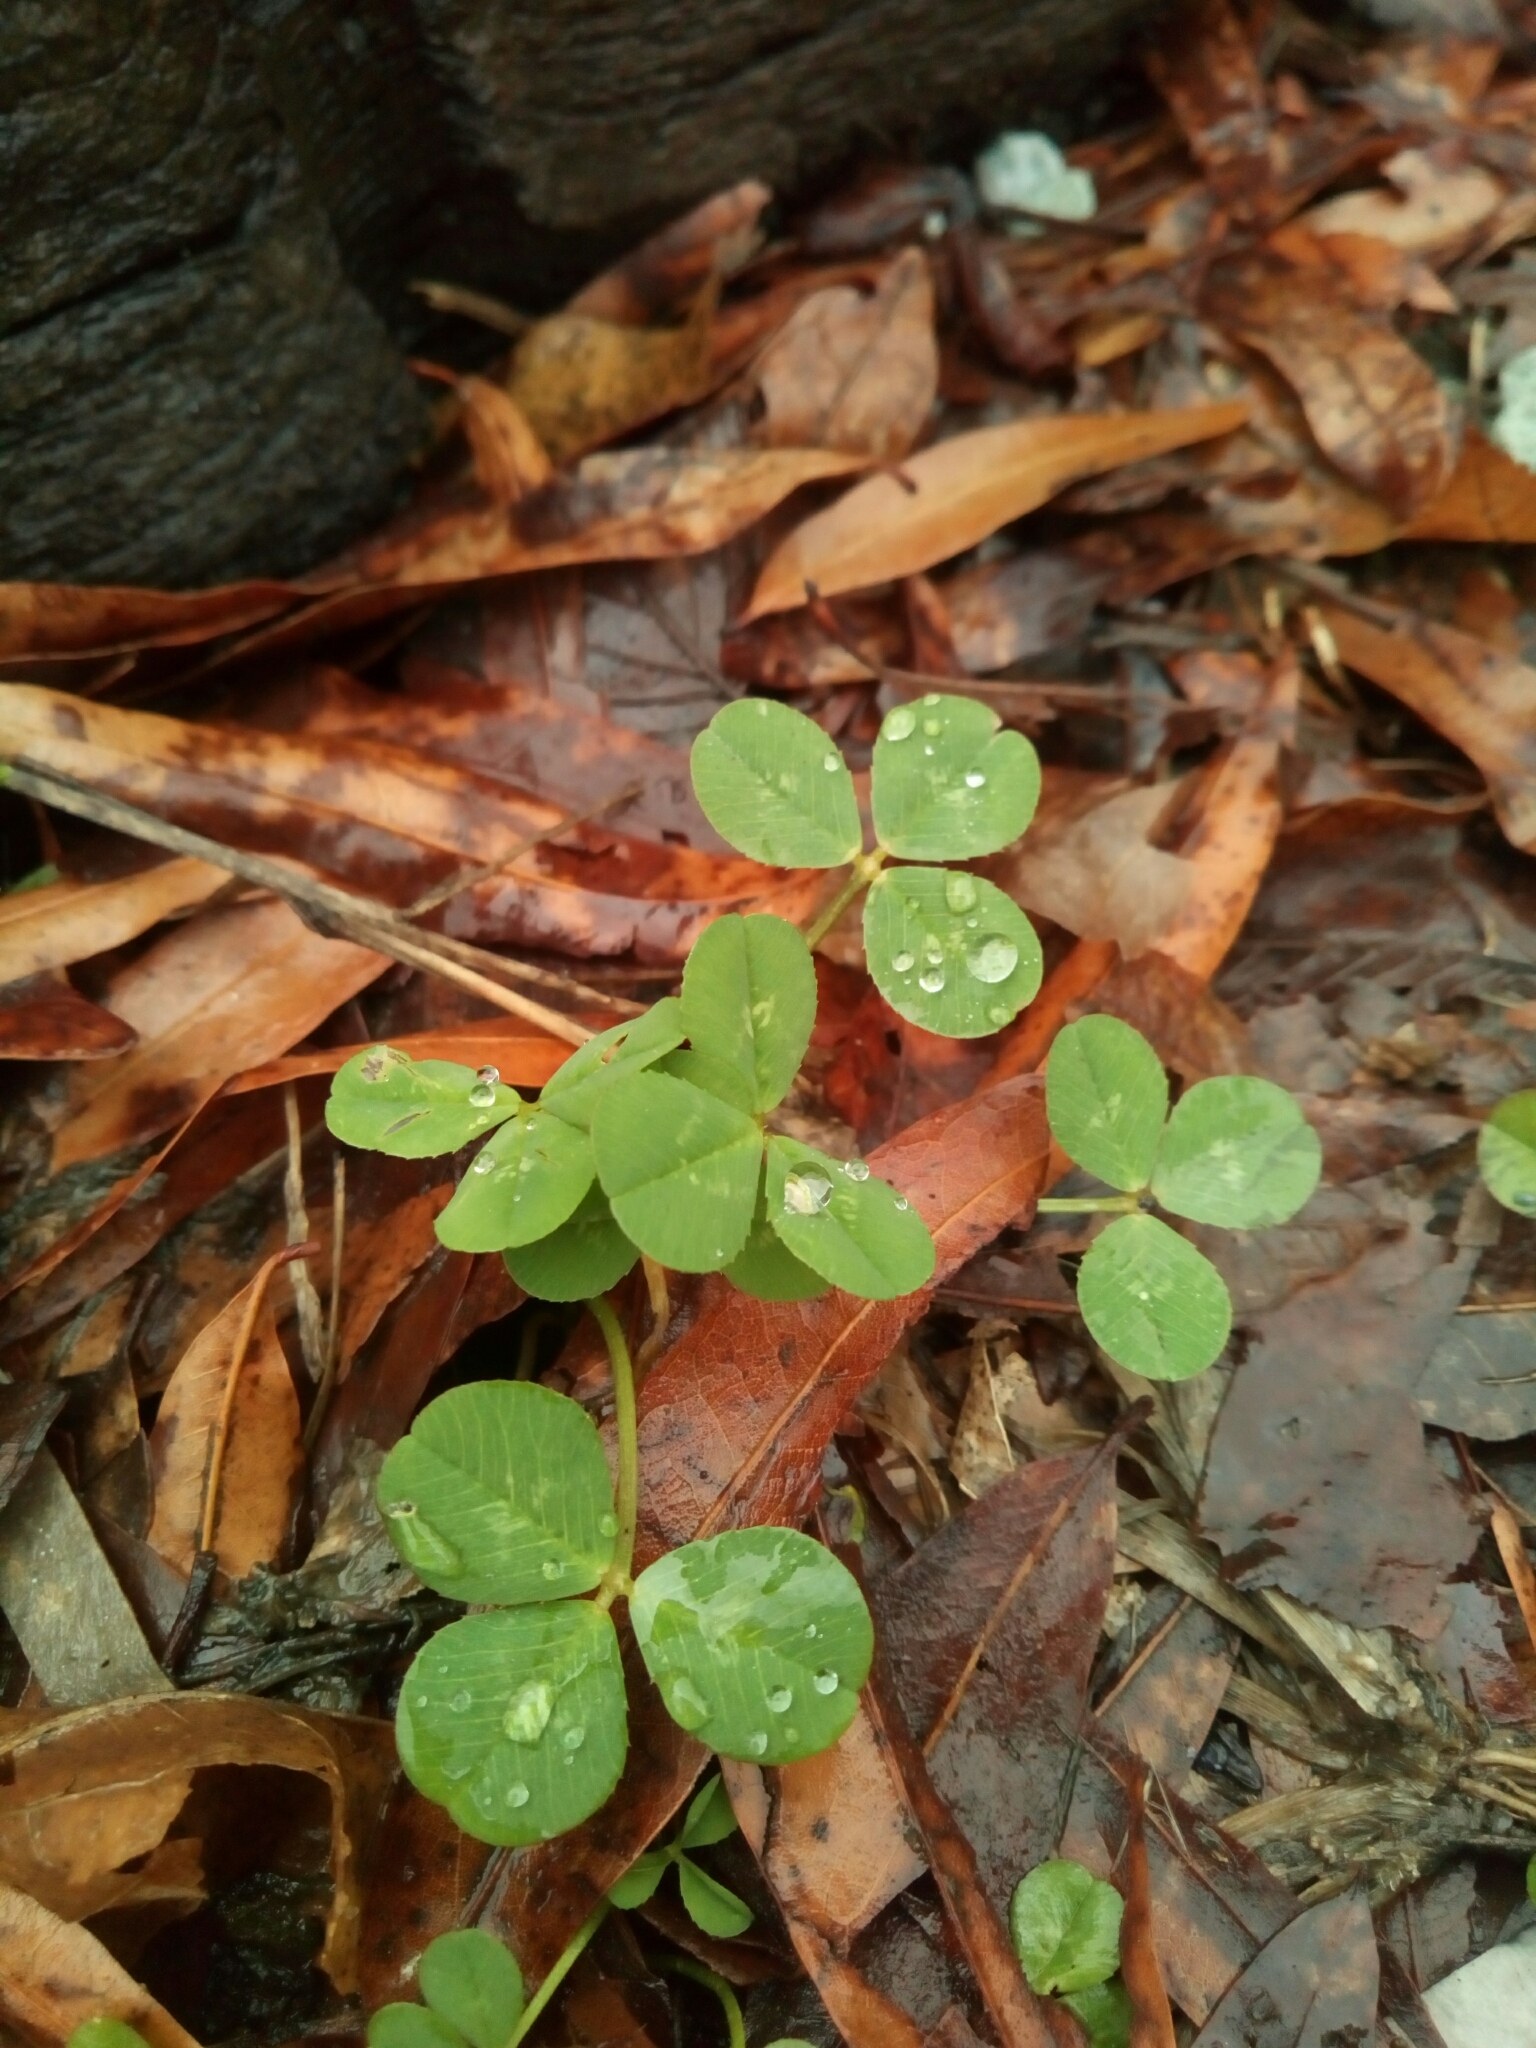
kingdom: Plantae
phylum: Tracheophyta
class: Magnoliopsida
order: Fabales
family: Fabaceae
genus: Trifolium
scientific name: Trifolium repens
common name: White clover
